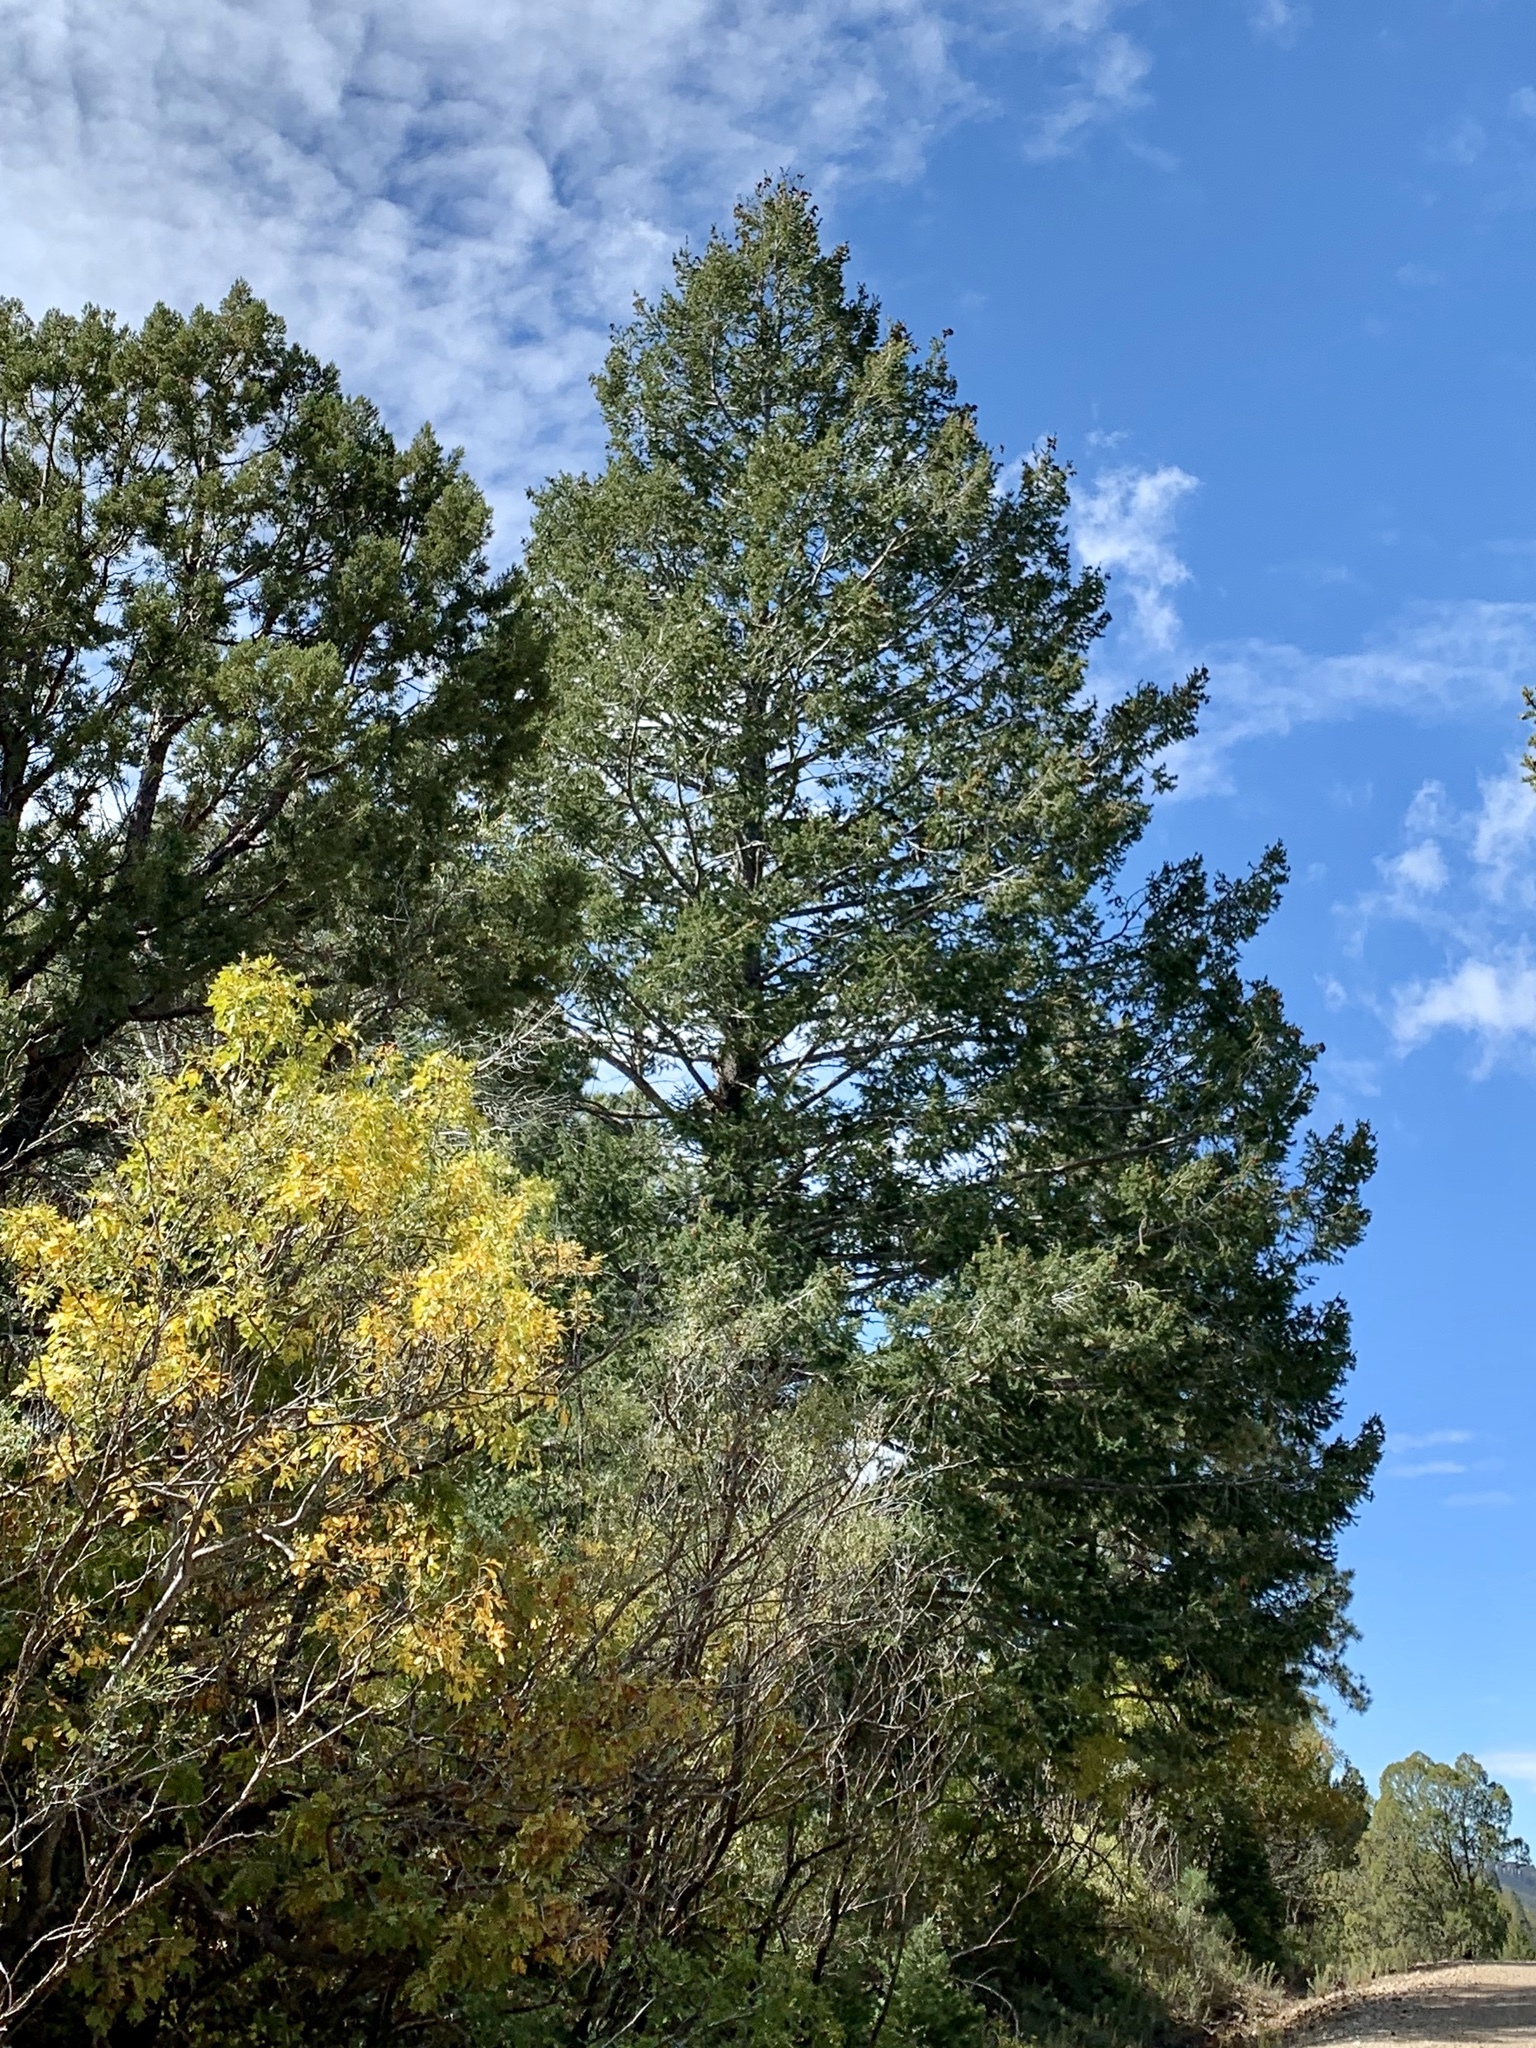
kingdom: Plantae
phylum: Tracheophyta
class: Pinopsida
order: Pinales
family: Pinaceae
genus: Pseudotsuga
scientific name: Pseudotsuga menziesii
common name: Douglas fir
